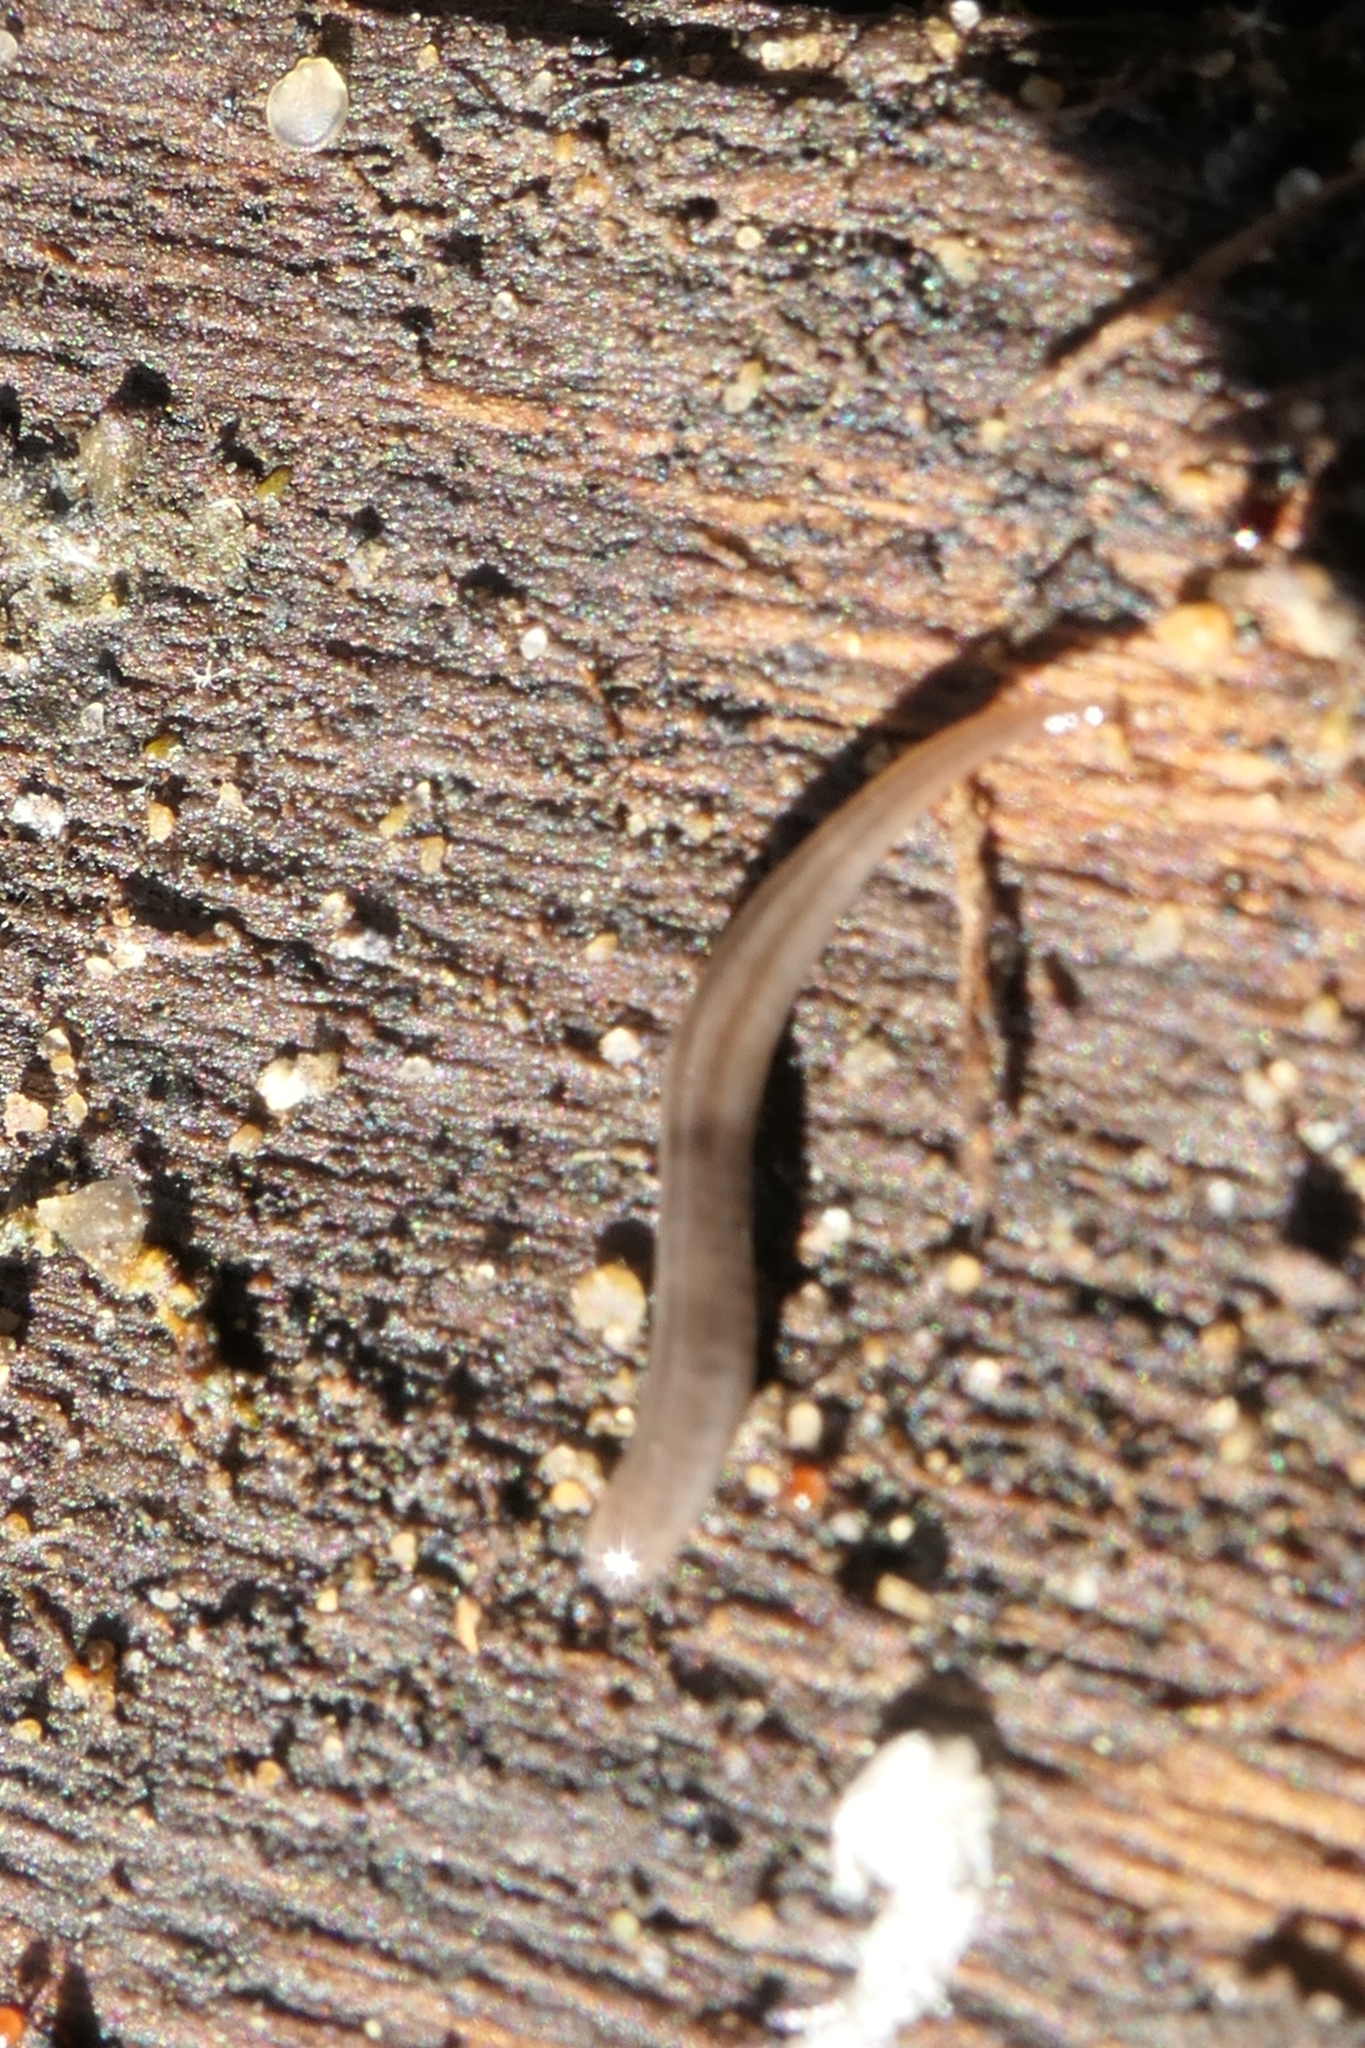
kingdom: Animalia
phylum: Platyhelminthes
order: Tricladida
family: Geoplanidae
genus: Rhynchodemus
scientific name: Rhynchodemus sylvaticus
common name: A flatworm
